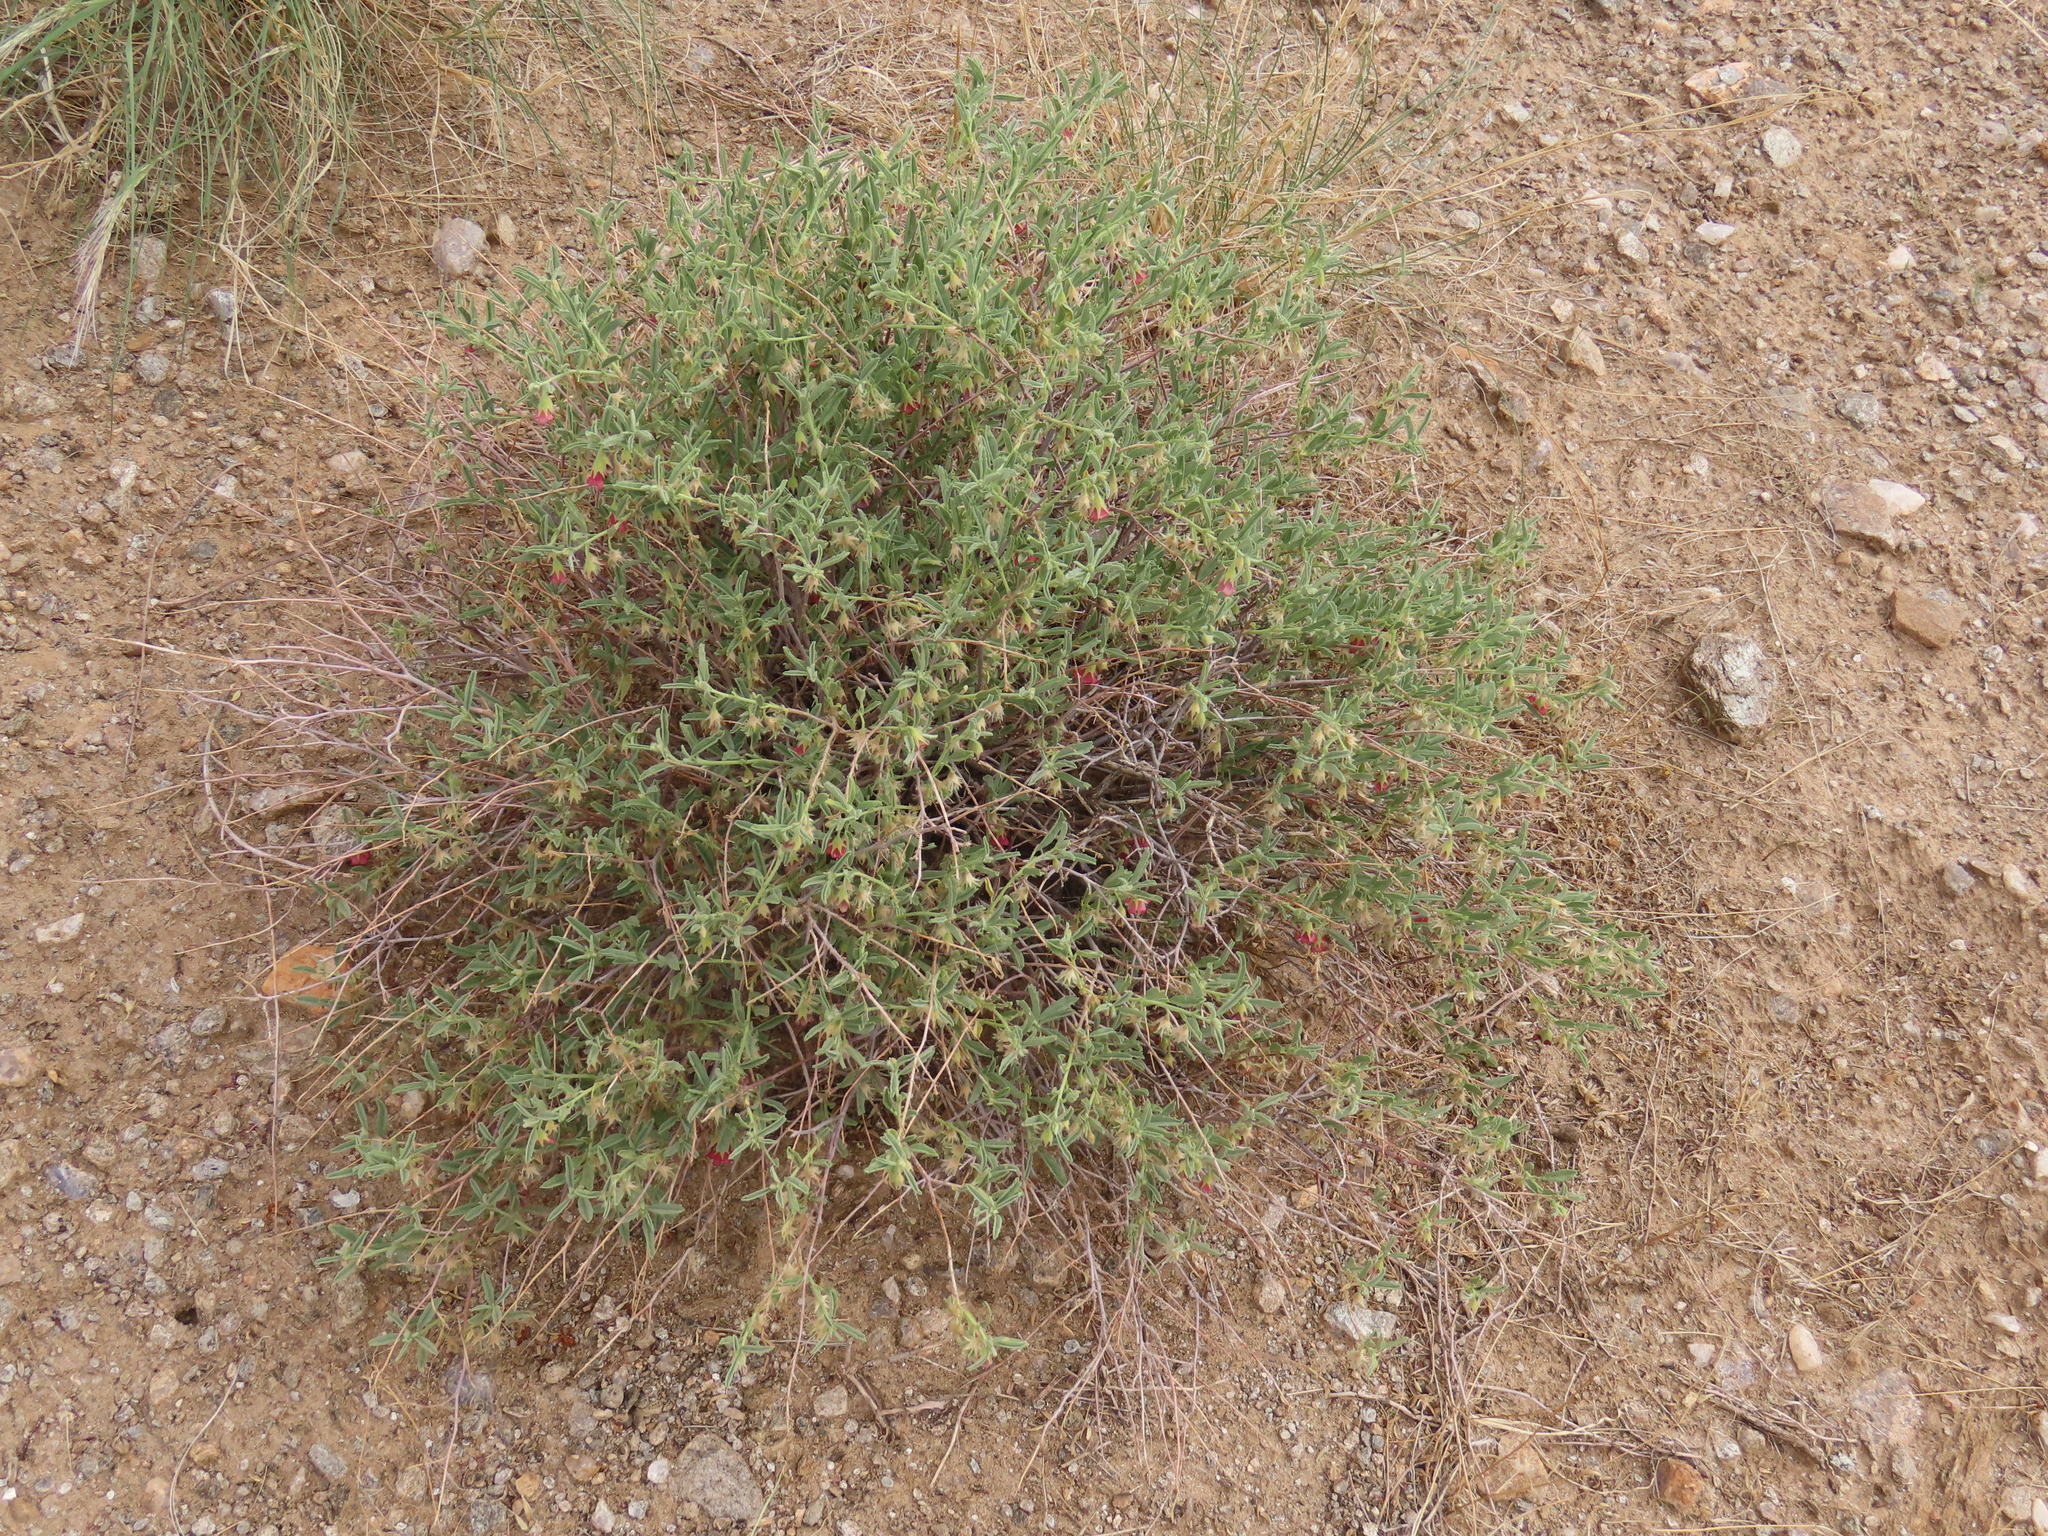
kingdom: Plantae
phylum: Tracheophyta
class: Magnoliopsida
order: Malvales
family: Malvaceae
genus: Hermannia
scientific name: Hermannia affinis
